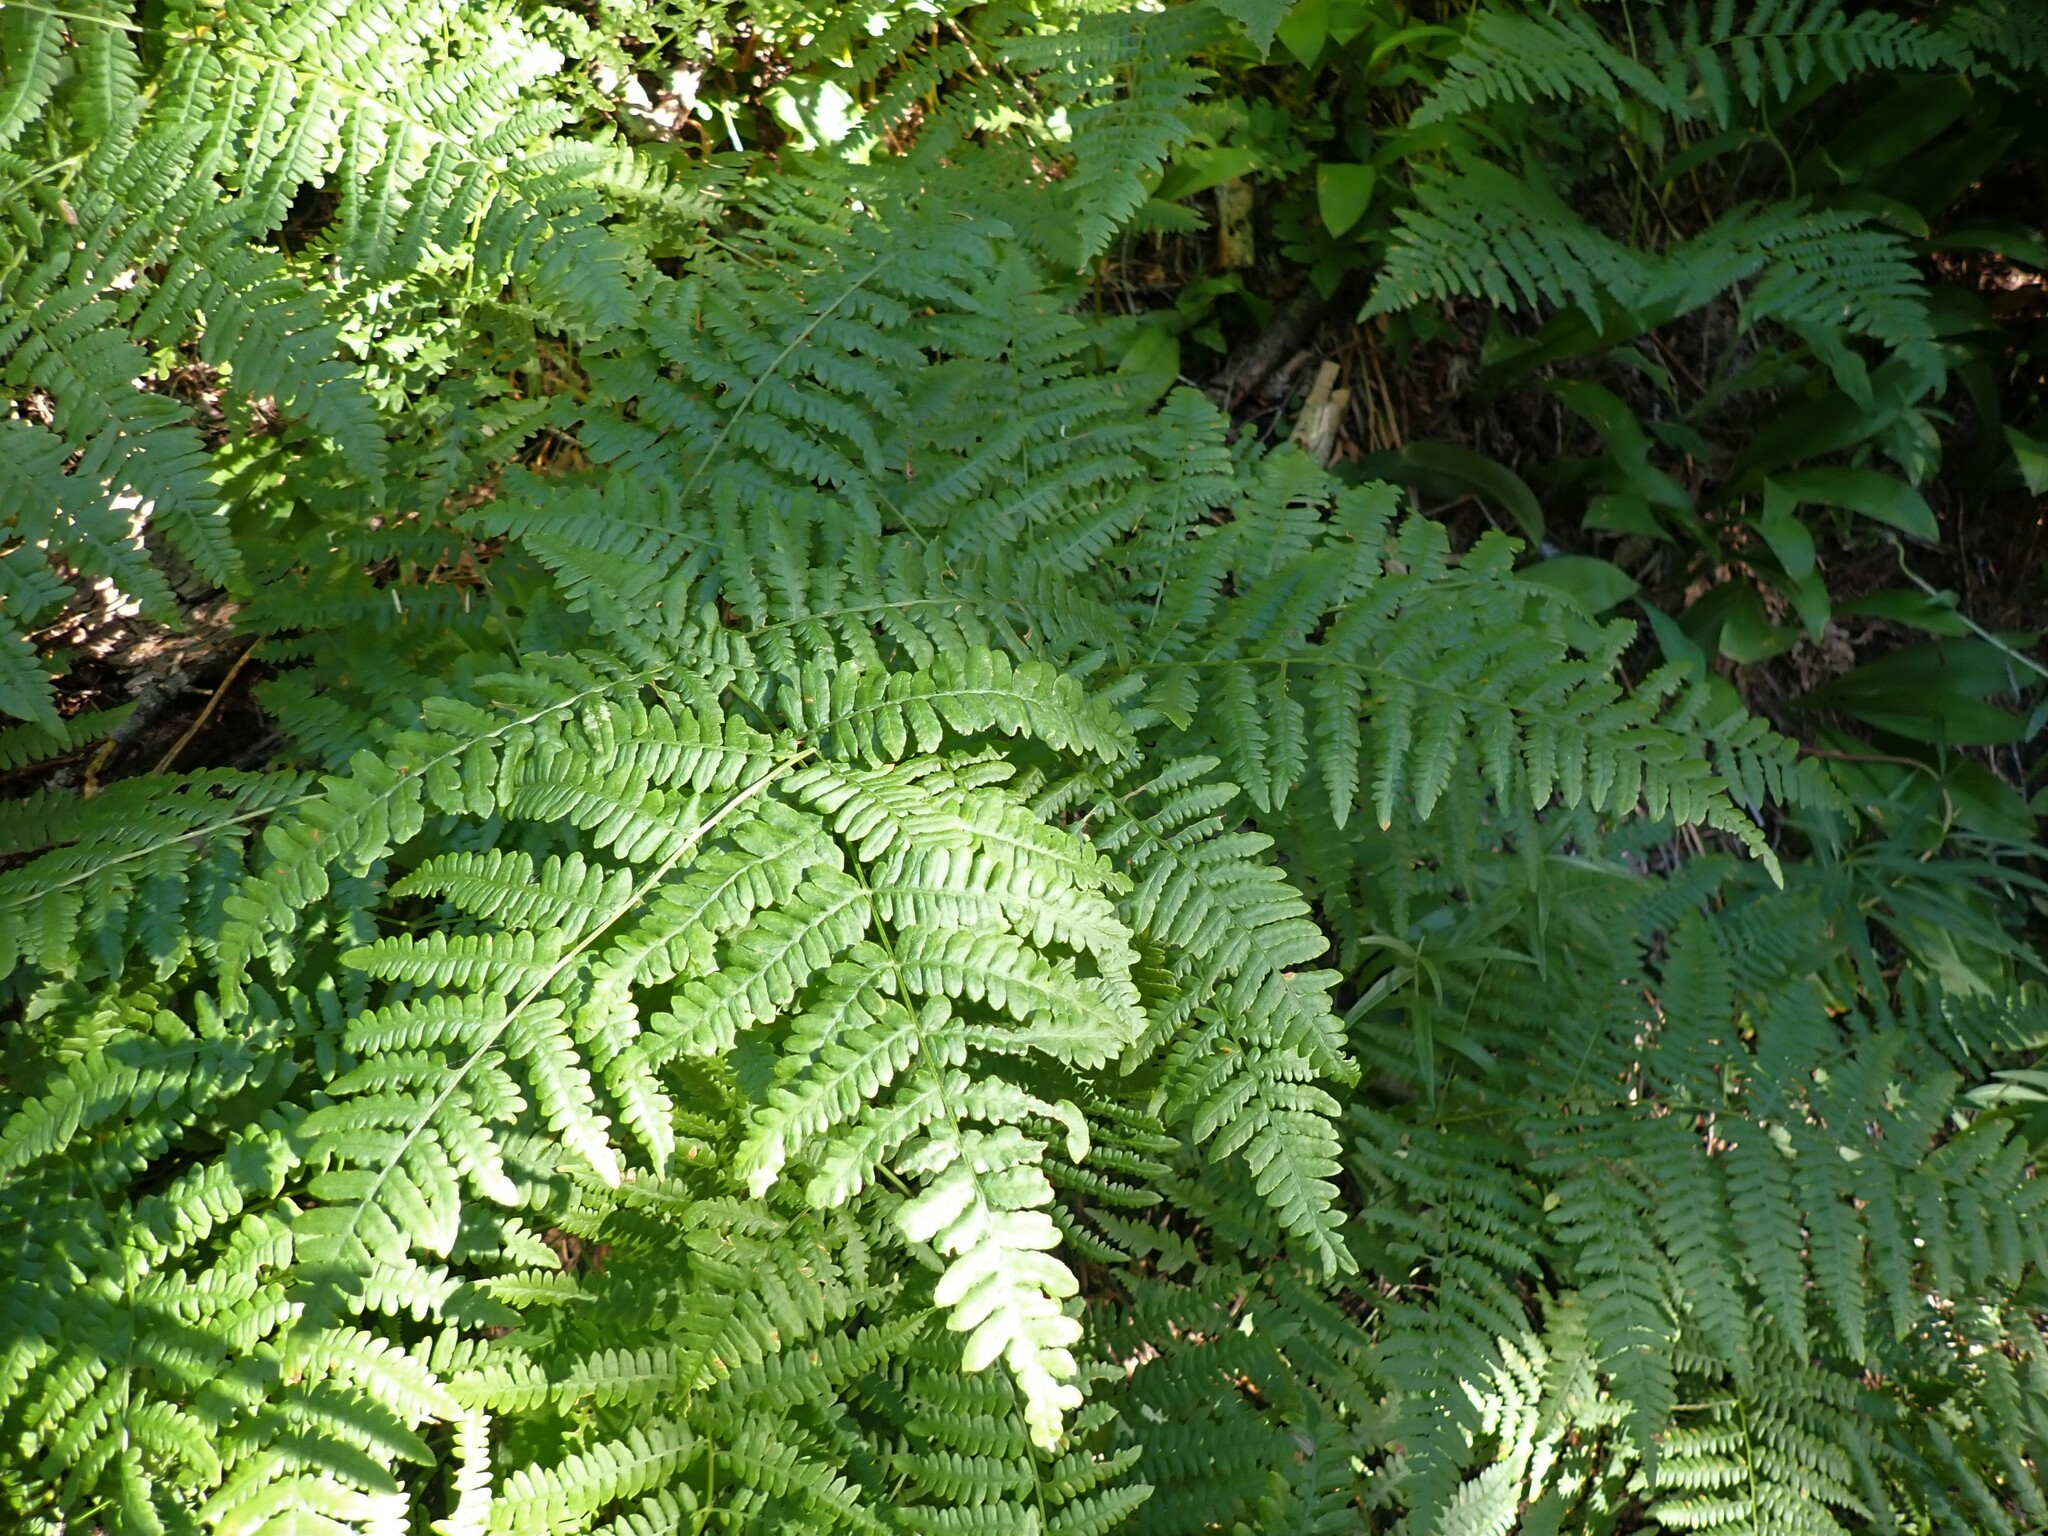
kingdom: Plantae
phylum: Tracheophyta
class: Polypodiopsida
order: Polypodiales
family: Dennstaedtiaceae
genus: Pteridium
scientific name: Pteridium aquilinum
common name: Bracken
